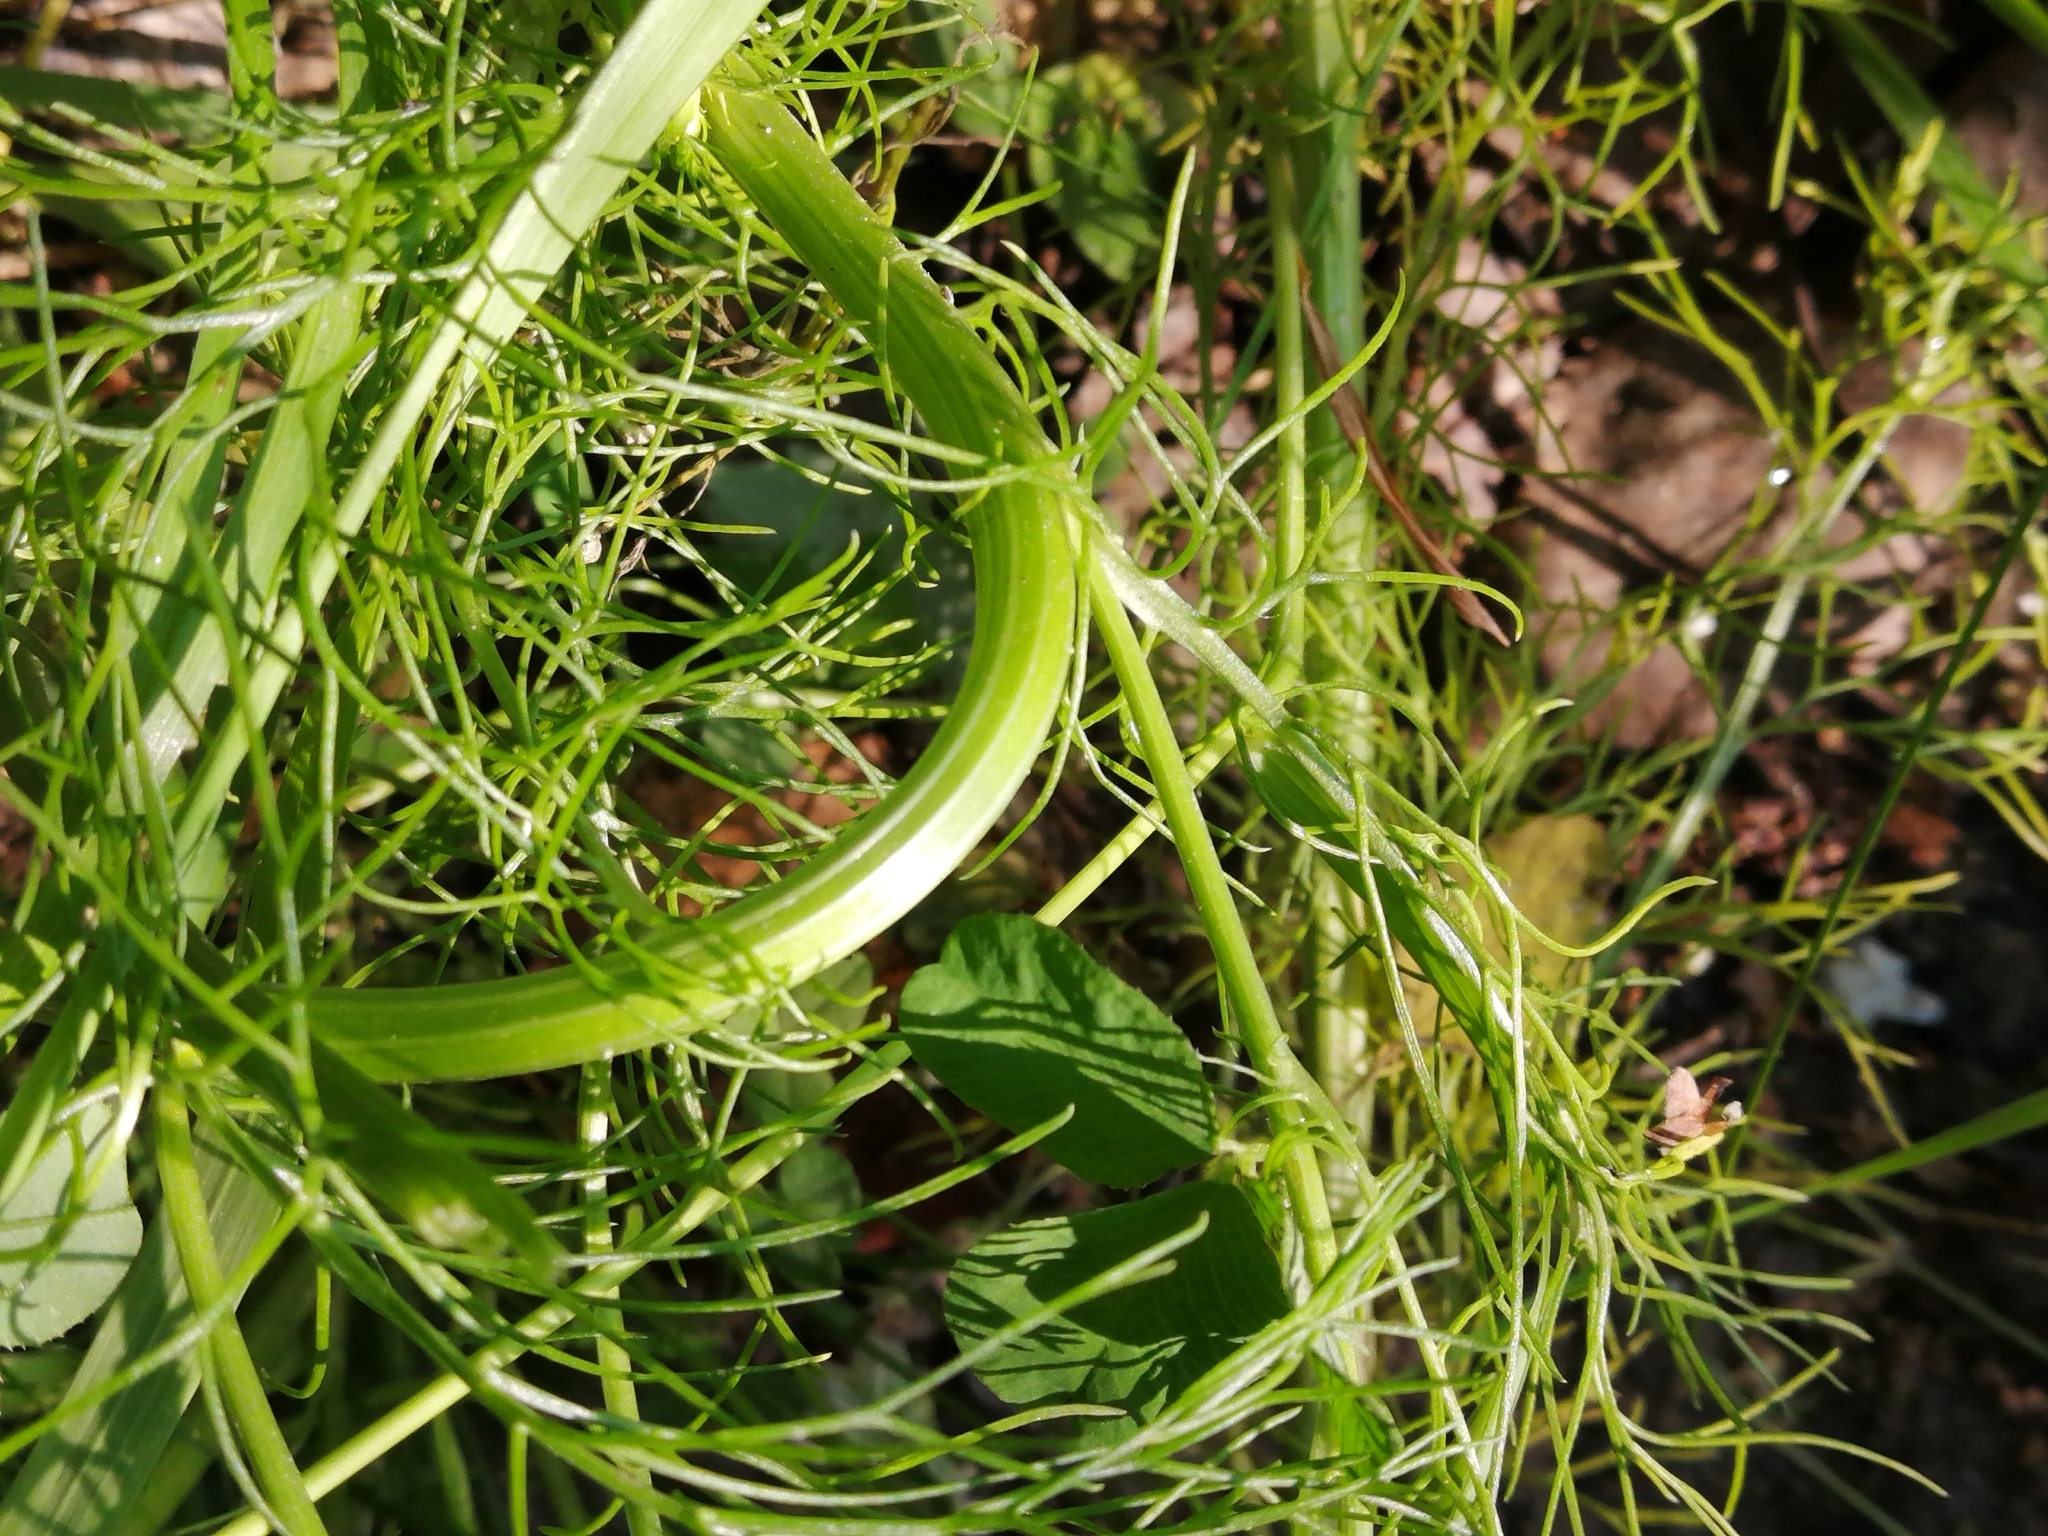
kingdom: Plantae
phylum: Tracheophyta
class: Magnoliopsida
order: Asterales
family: Asteraceae
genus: Tripleurospermum
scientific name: Tripleurospermum inodorum
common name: Scentless mayweed
